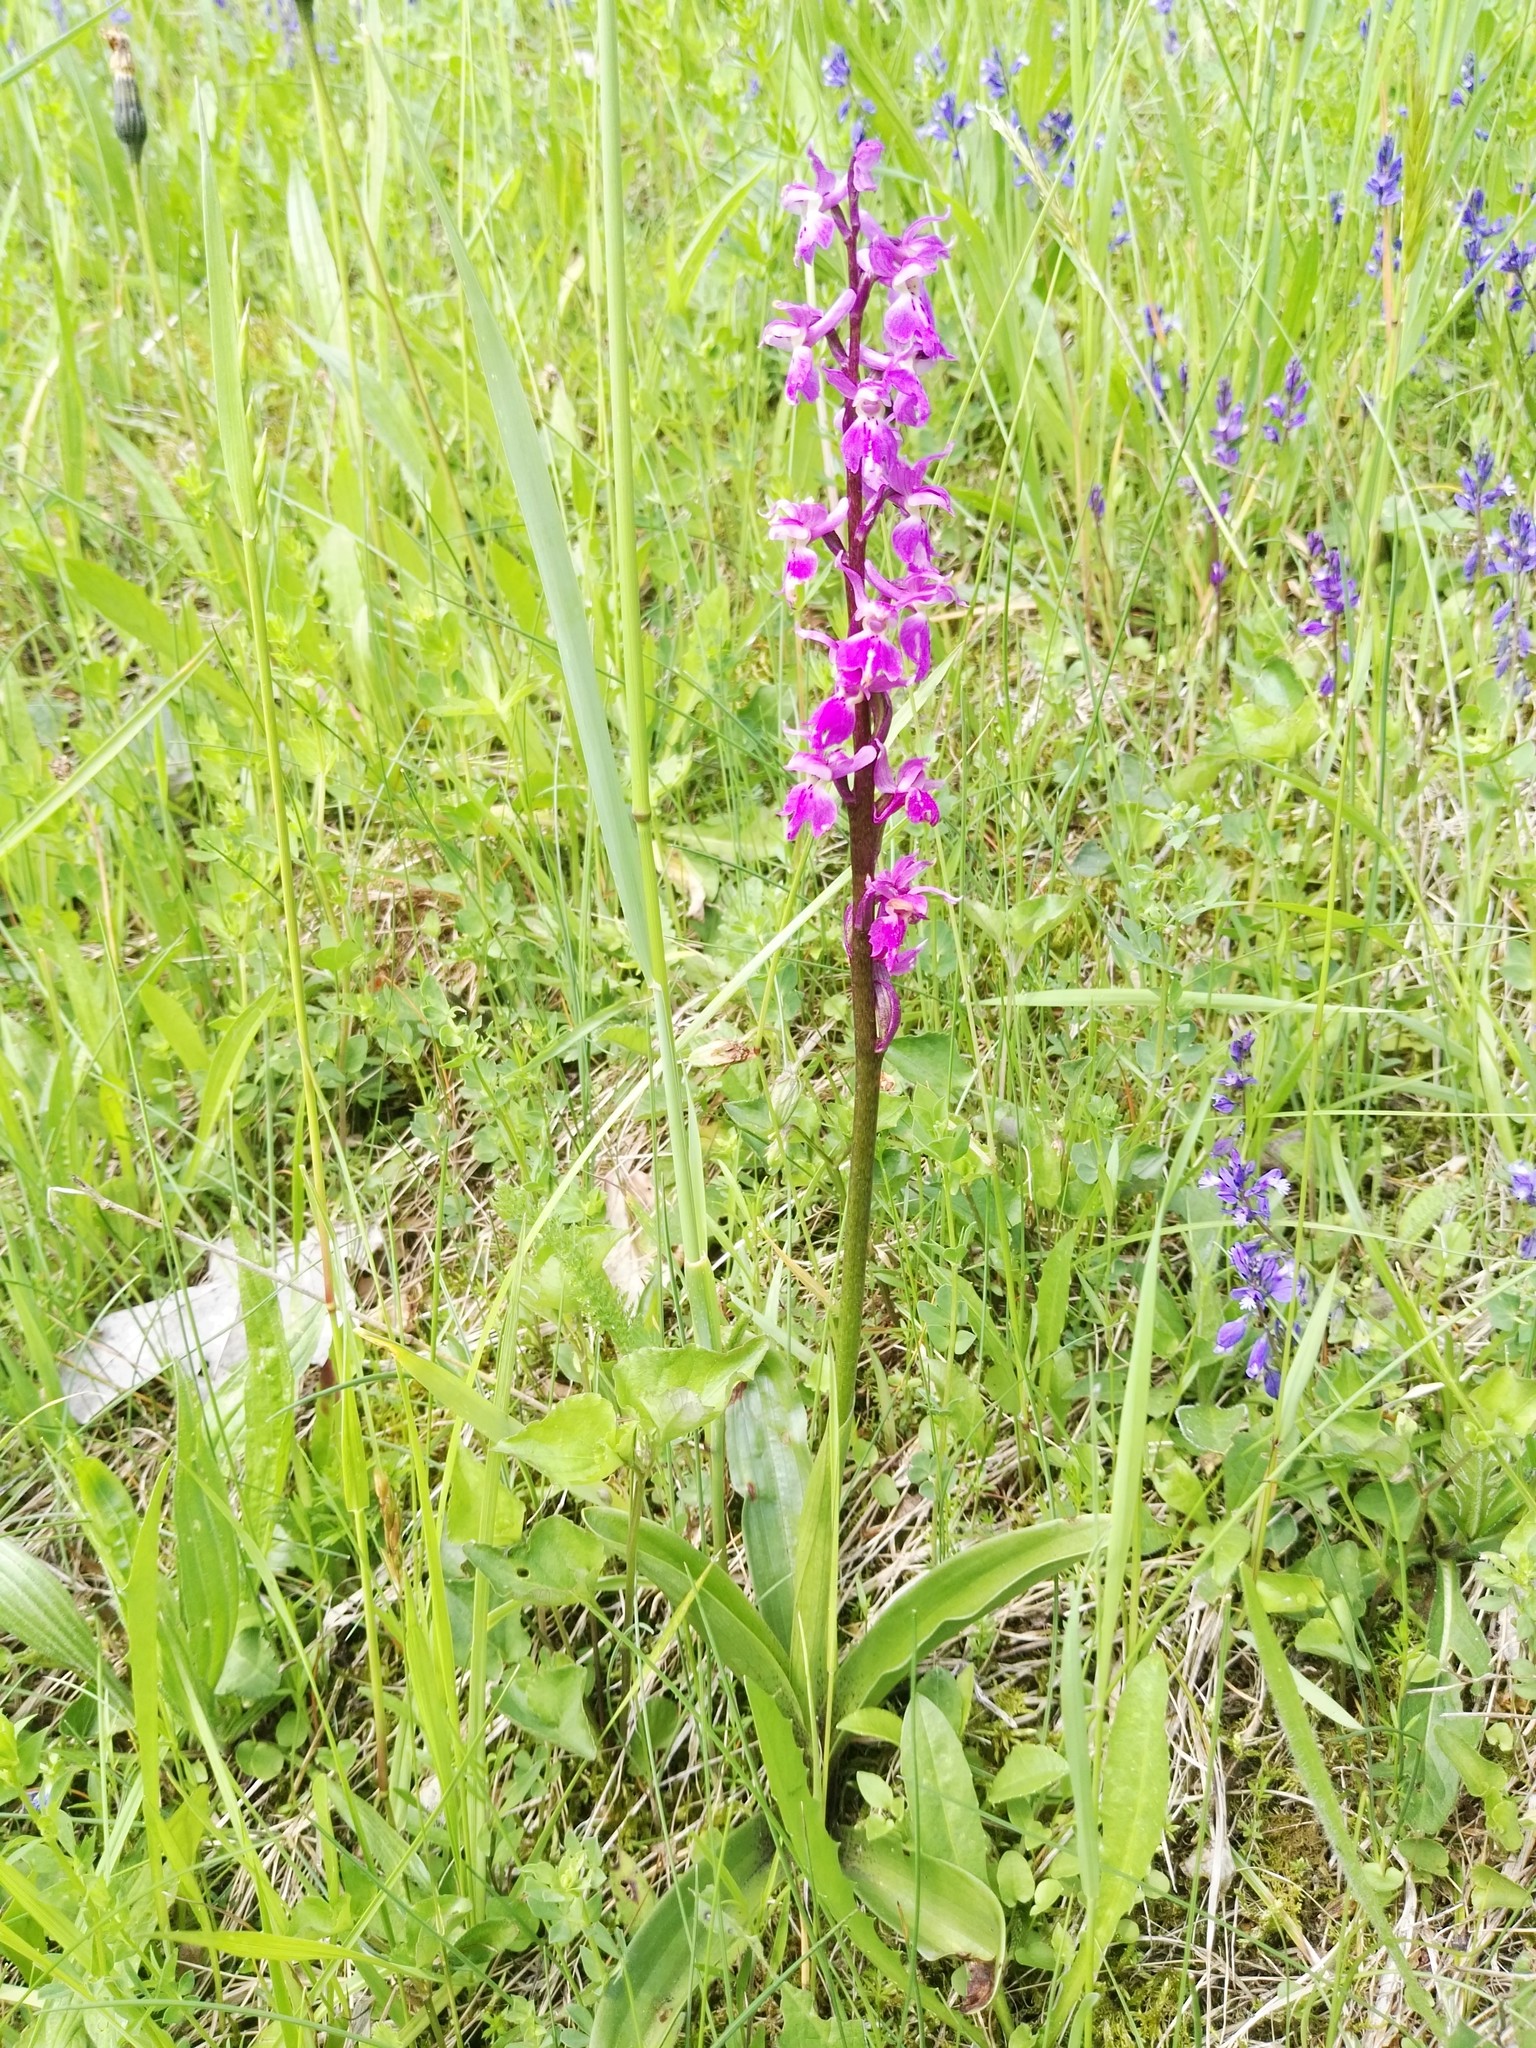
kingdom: Plantae
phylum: Tracheophyta
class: Liliopsida
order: Asparagales
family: Orchidaceae
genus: Orchis
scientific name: Orchis mascula
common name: Early-purple orchid
